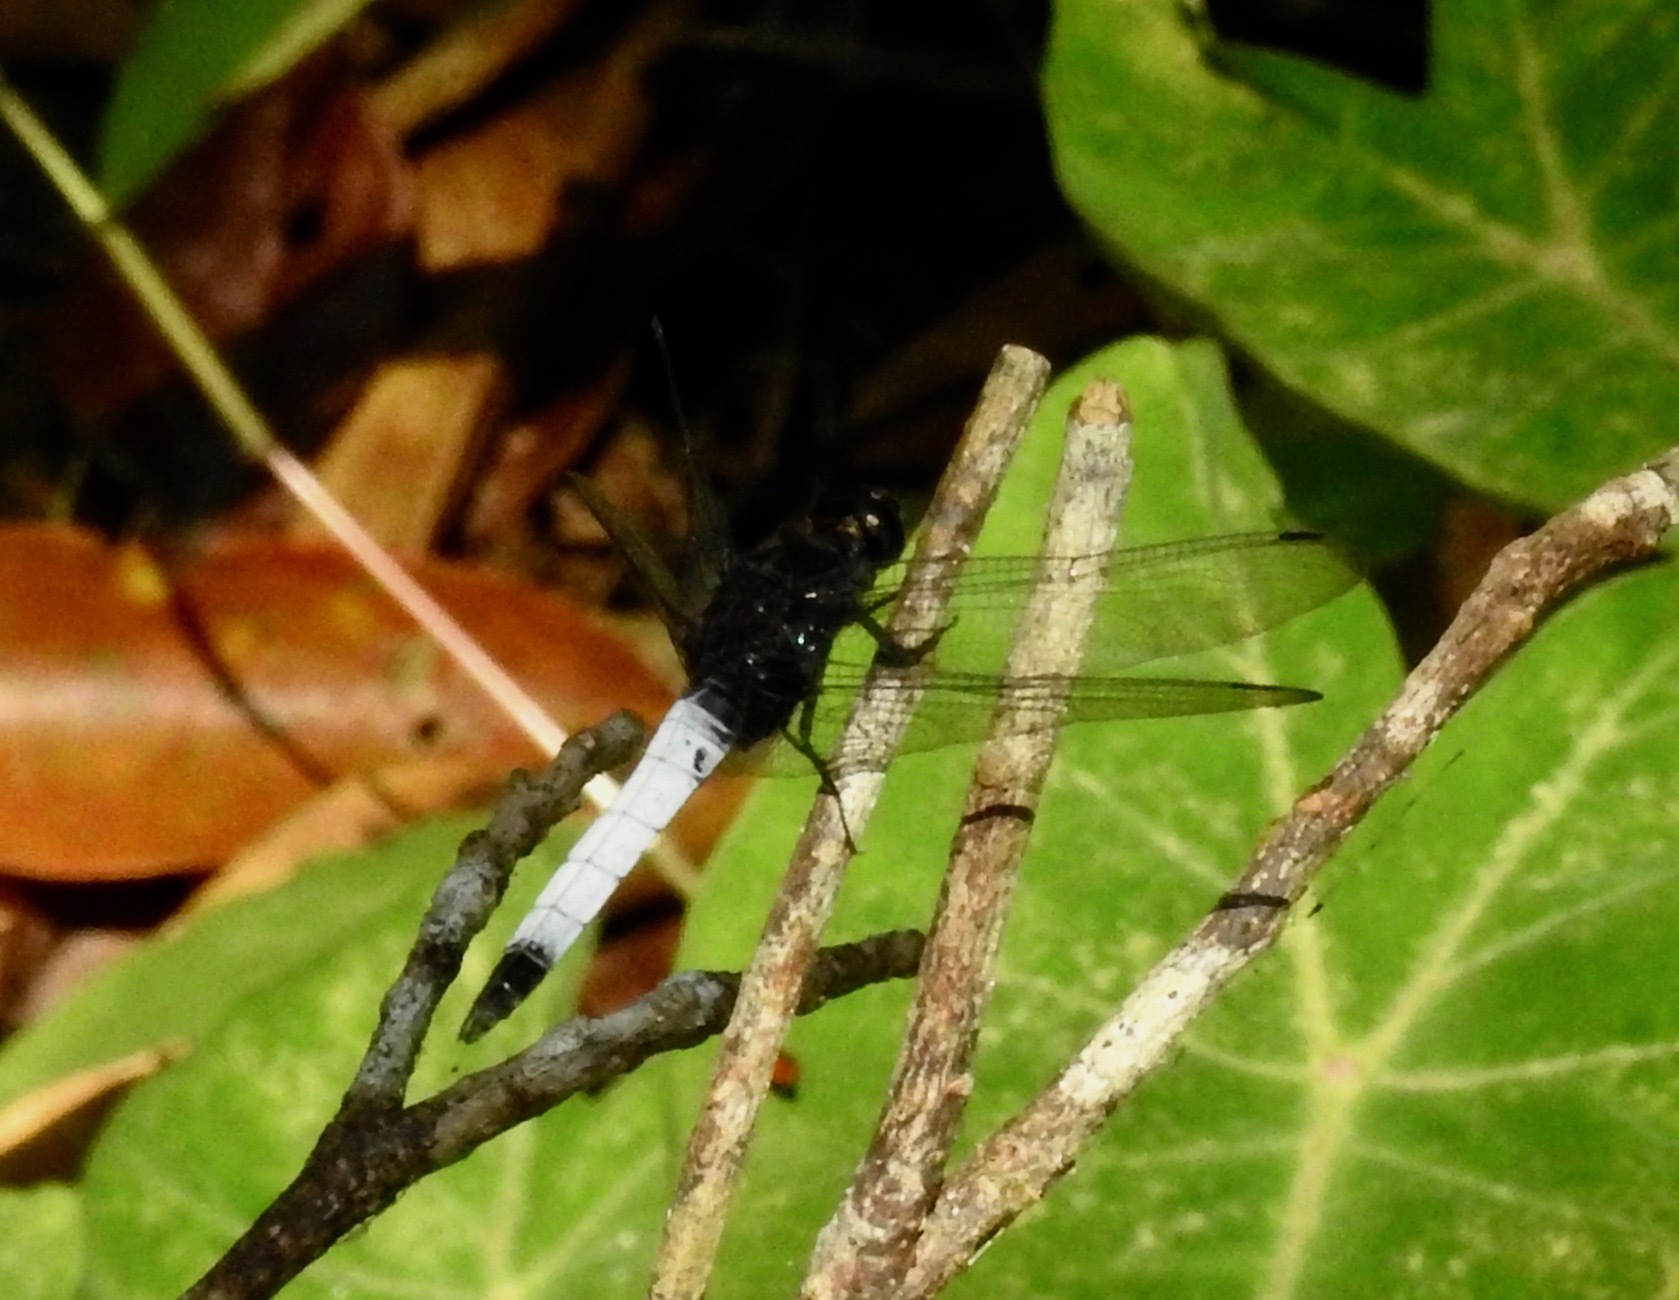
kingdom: Animalia
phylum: Arthropoda
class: Insecta
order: Odonata
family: Libellulidae
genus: Orthetrum
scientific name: Orthetrum triangulare
